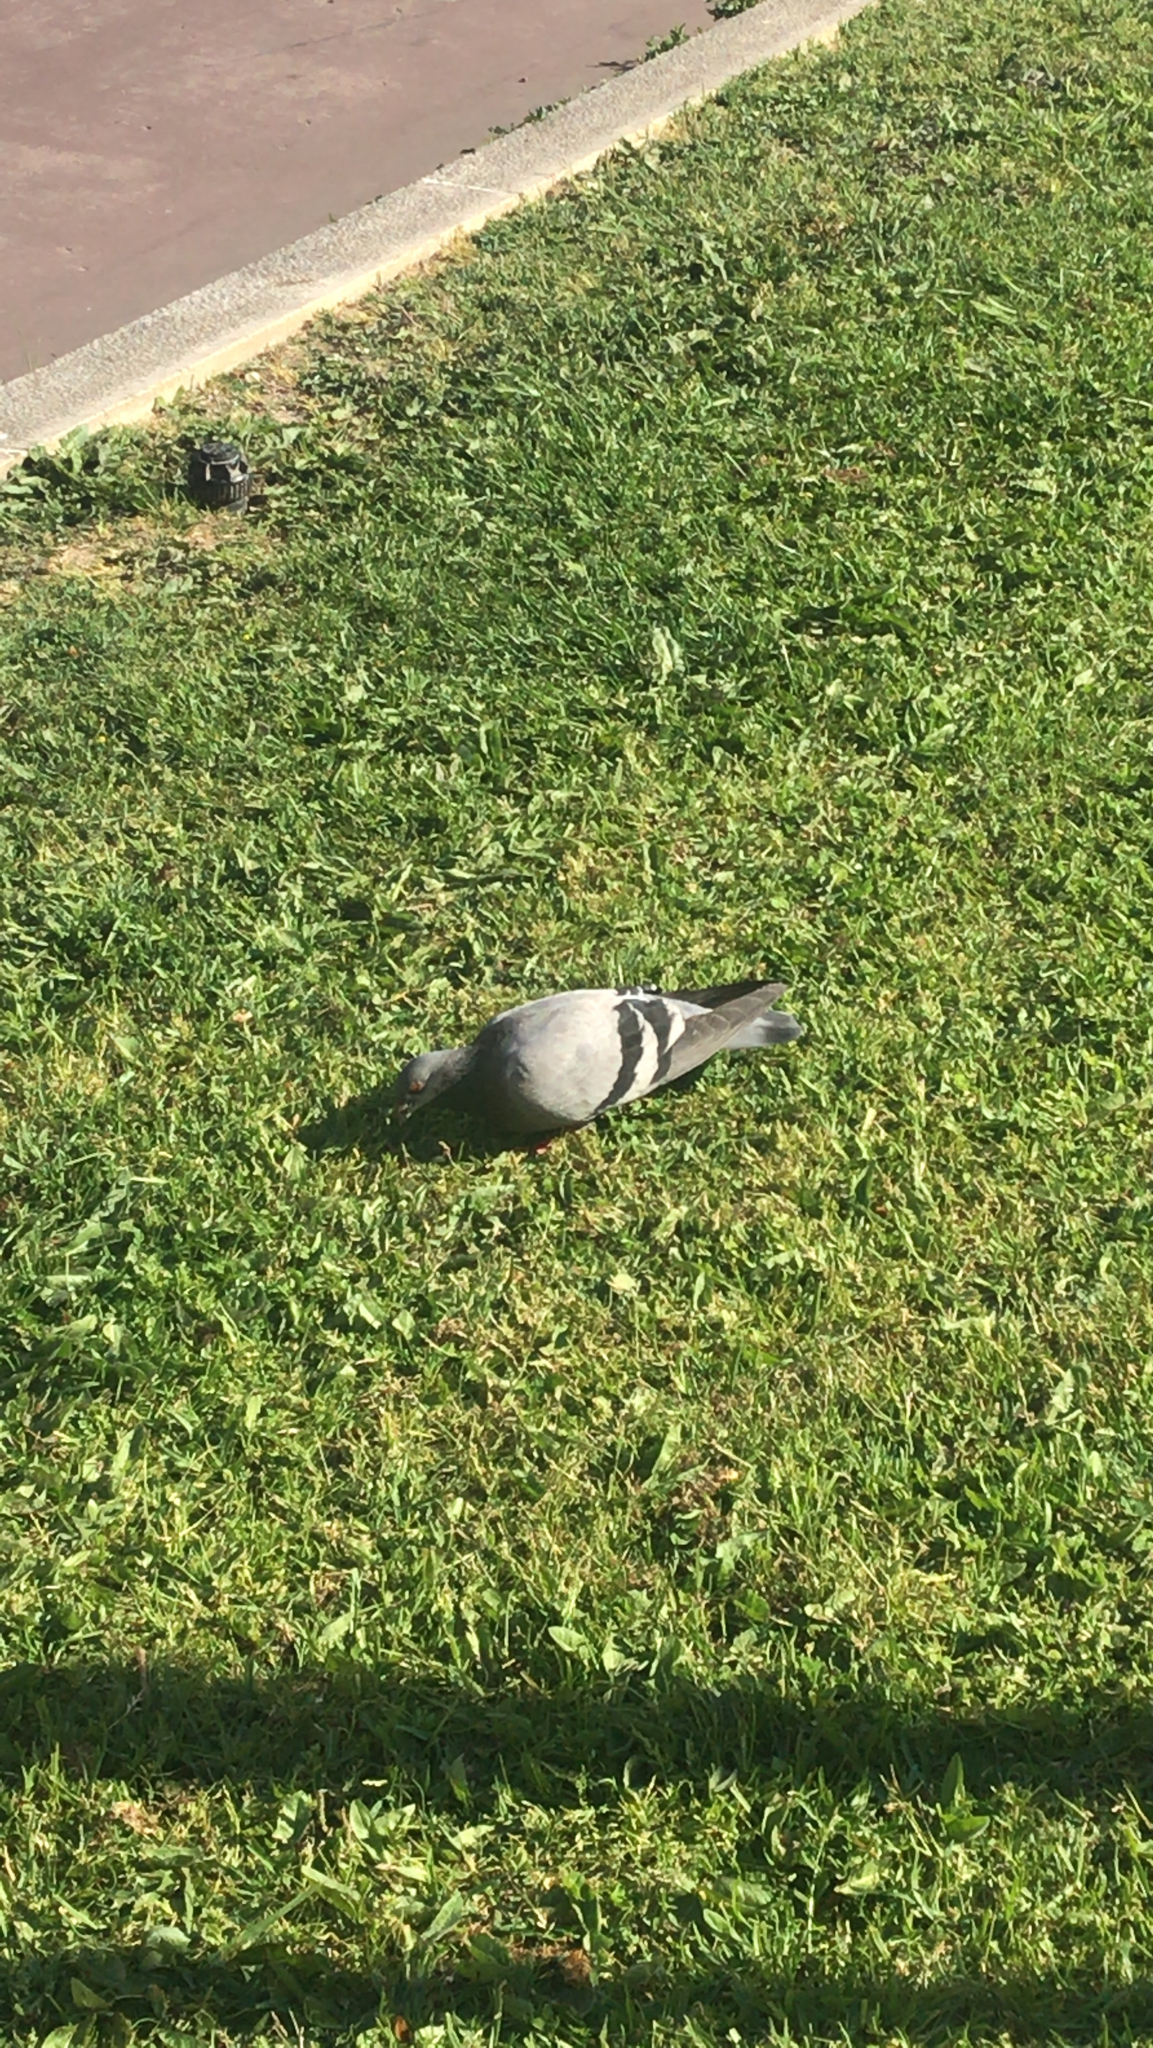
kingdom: Animalia
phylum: Chordata
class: Aves
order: Columbiformes
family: Columbidae
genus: Columba
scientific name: Columba livia
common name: Rock pigeon
